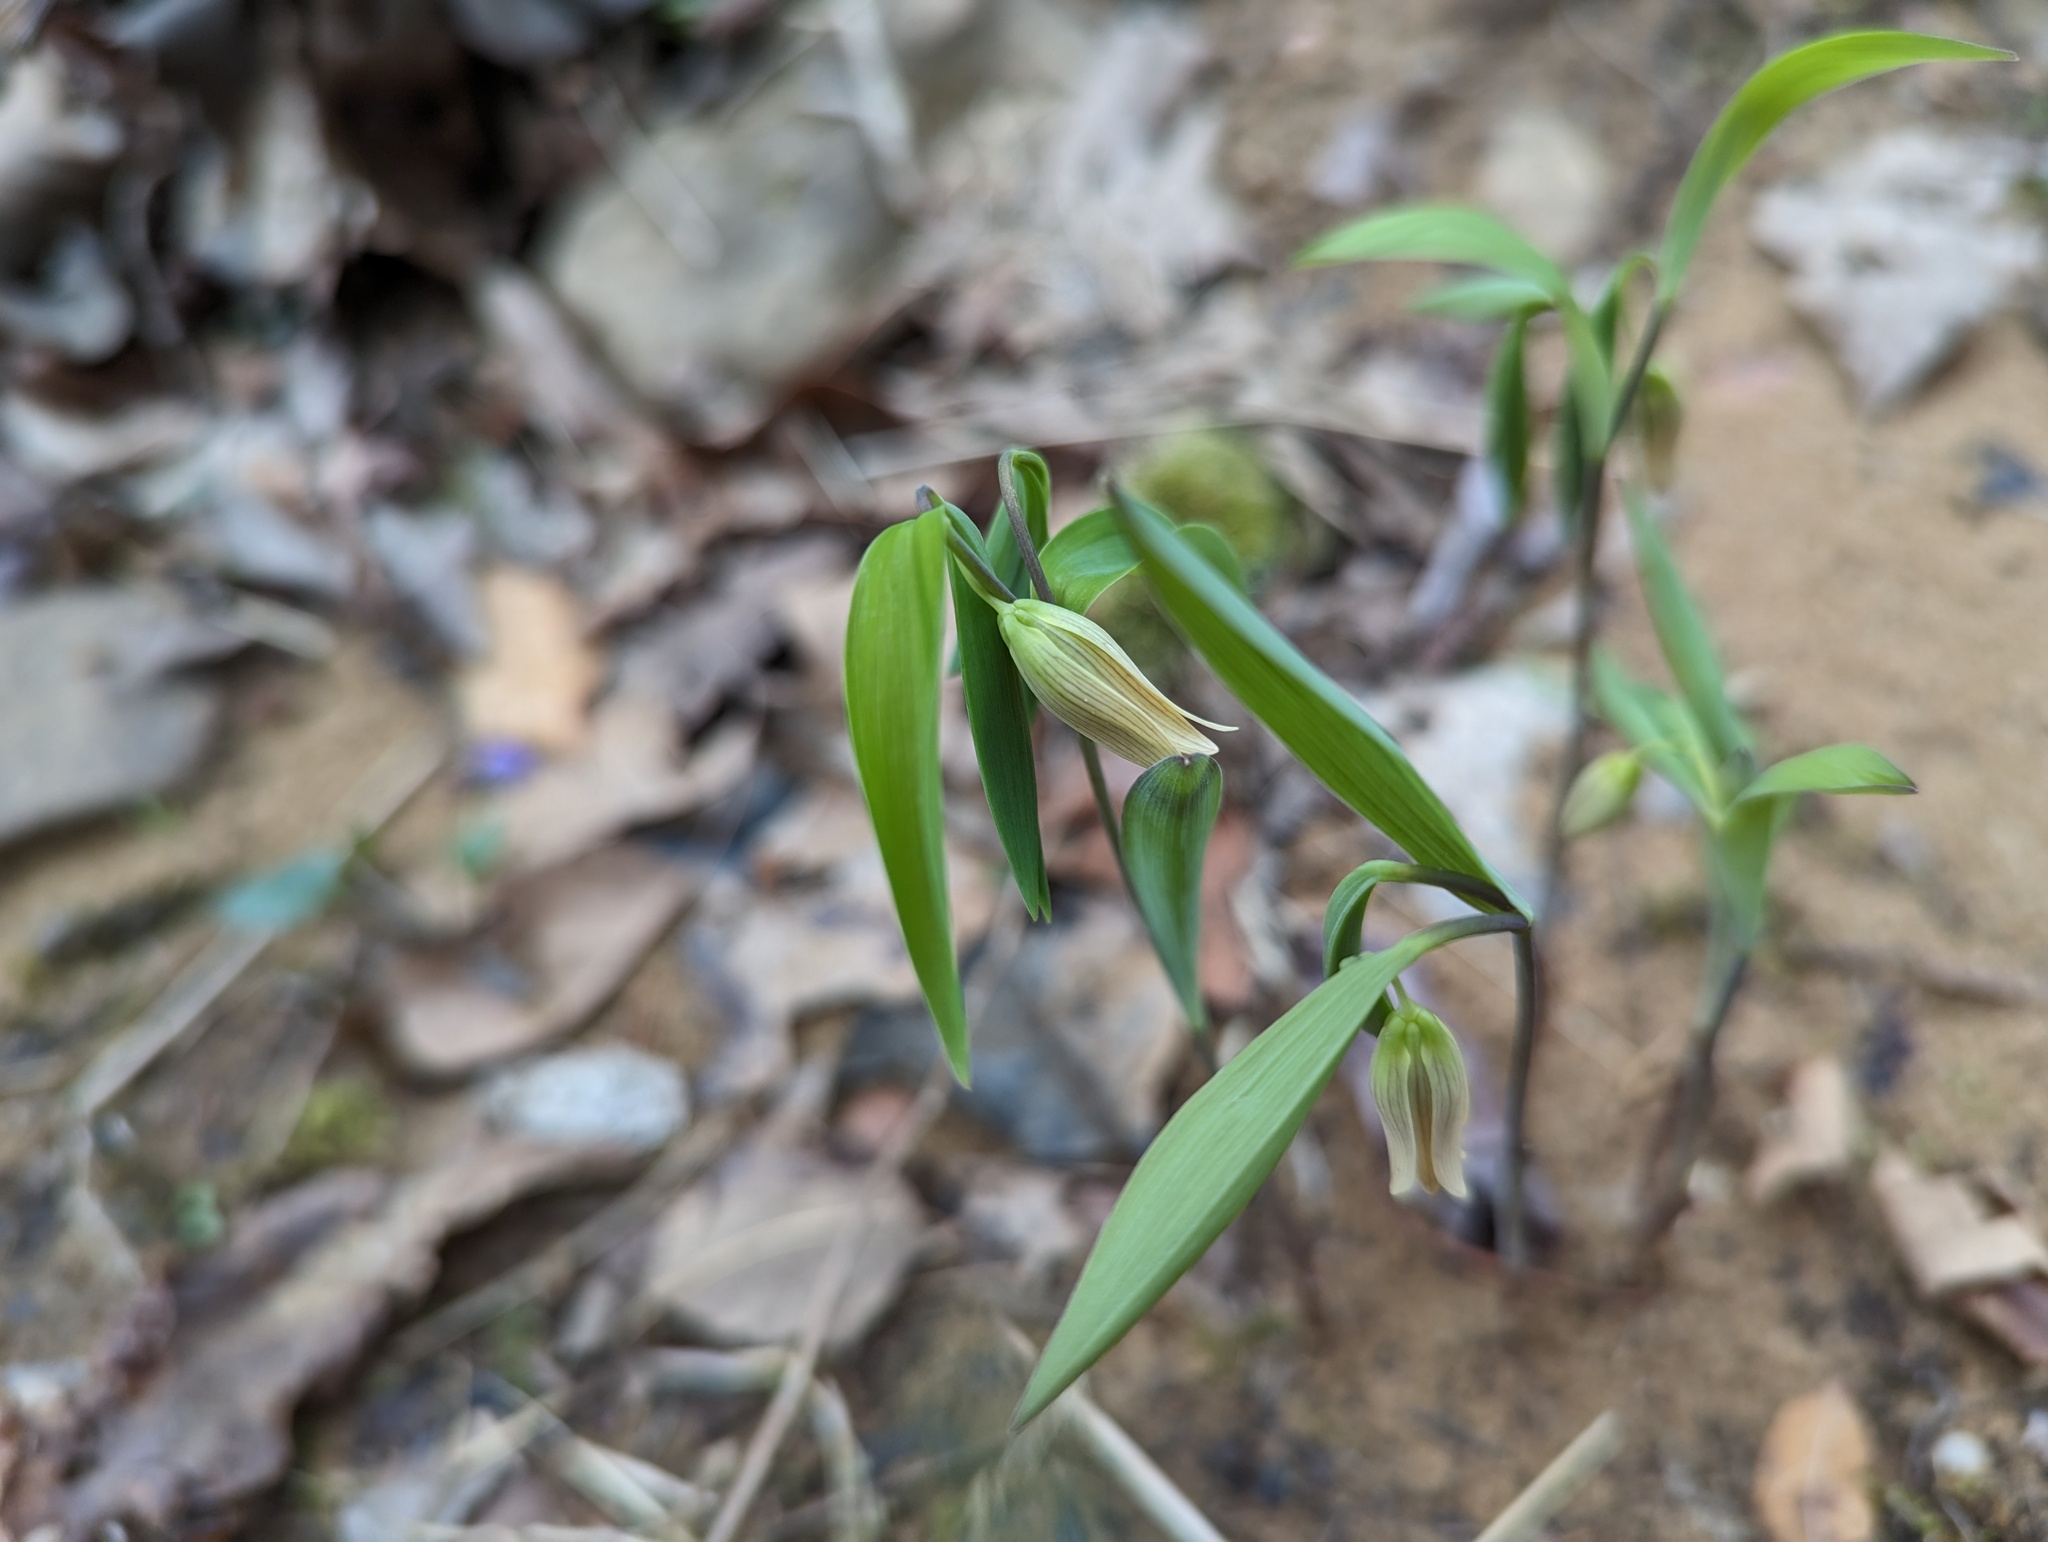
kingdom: Plantae
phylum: Tracheophyta
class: Liliopsida
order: Liliales
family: Colchicaceae
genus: Uvularia
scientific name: Uvularia sessilifolia
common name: Straw-lily
